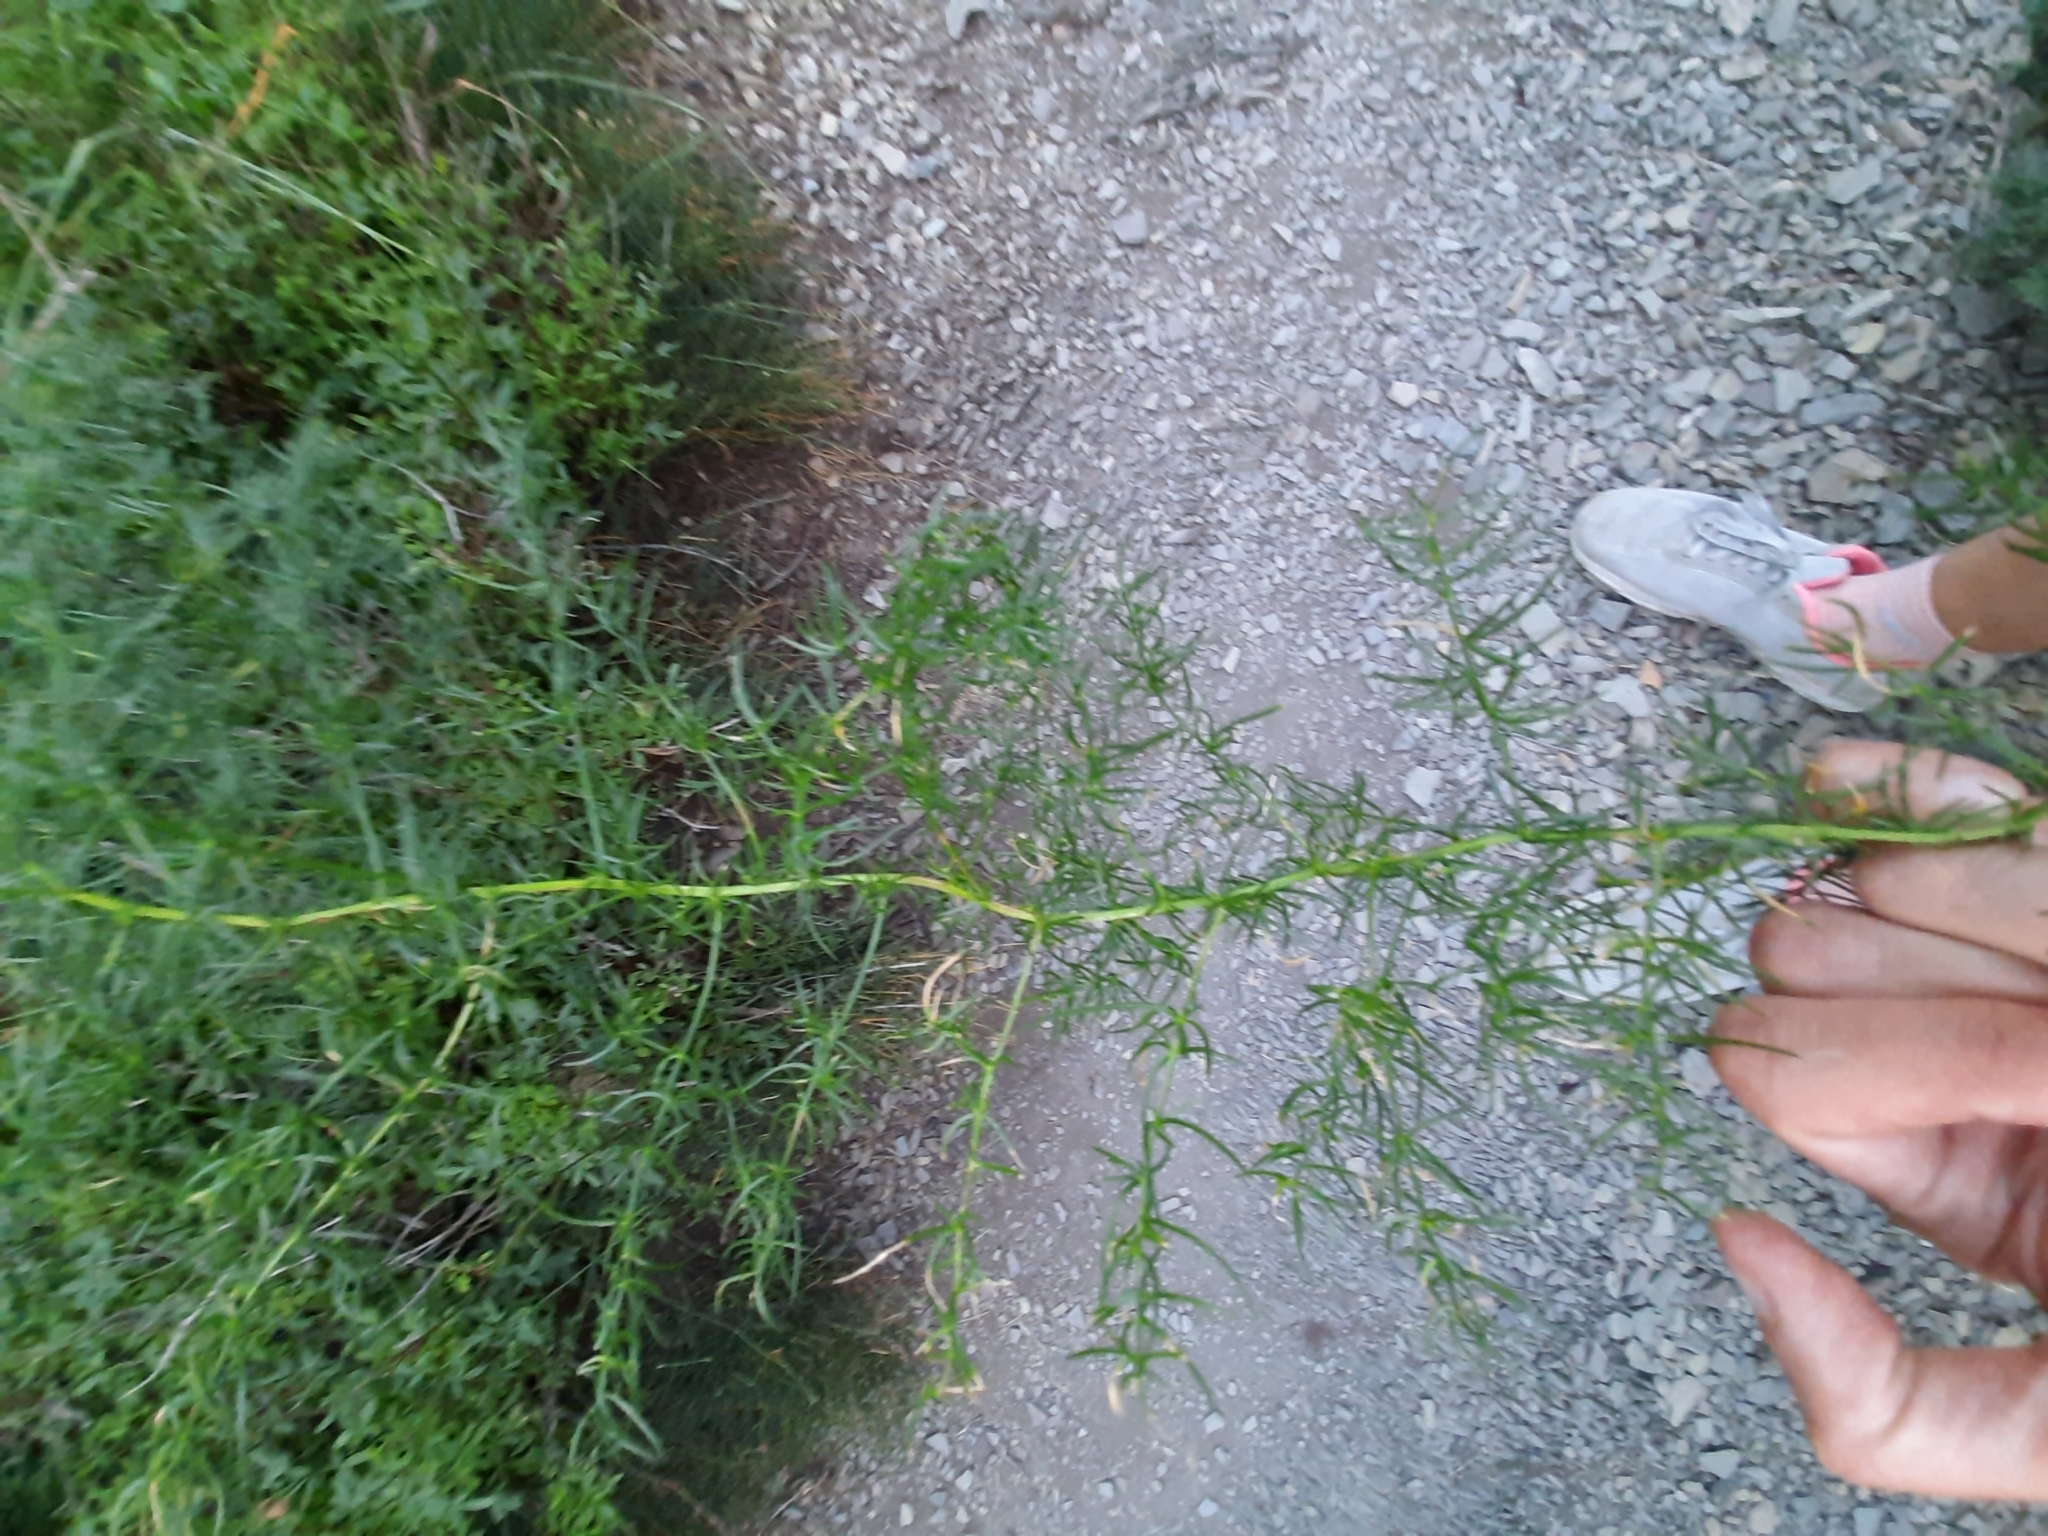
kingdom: Plantae
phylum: Tracheophyta
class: Liliopsida
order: Asparagales
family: Asparagaceae
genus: Asparagus
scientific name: Asparagus verticillatus
